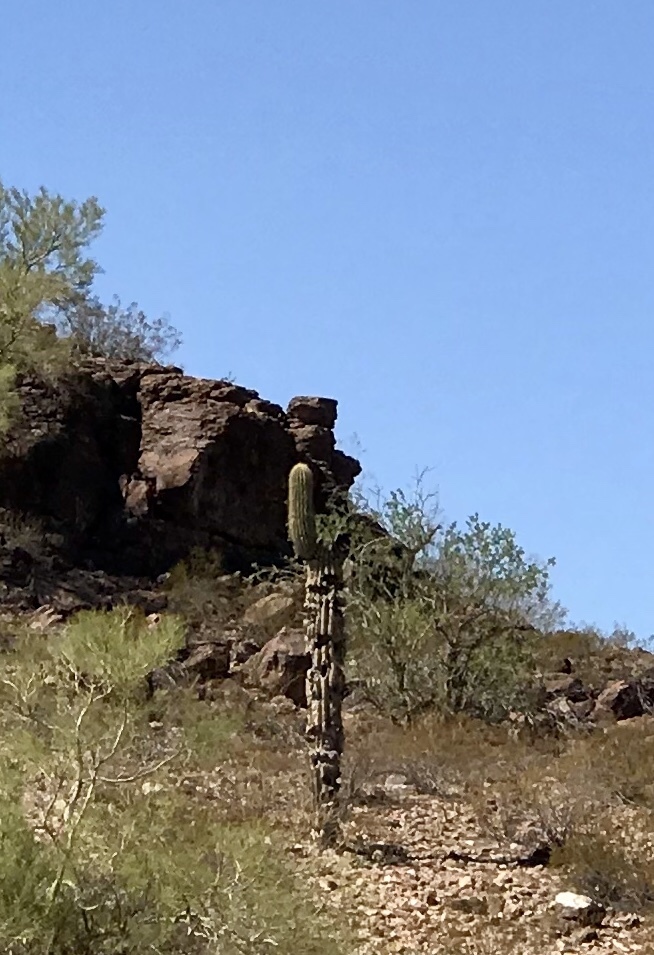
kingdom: Plantae
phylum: Tracheophyta
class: Magnoliopsida
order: Caryophyllales
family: Cactaceae
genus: Carnegiea
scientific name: Carnegiea gigantea
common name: Saguaro
